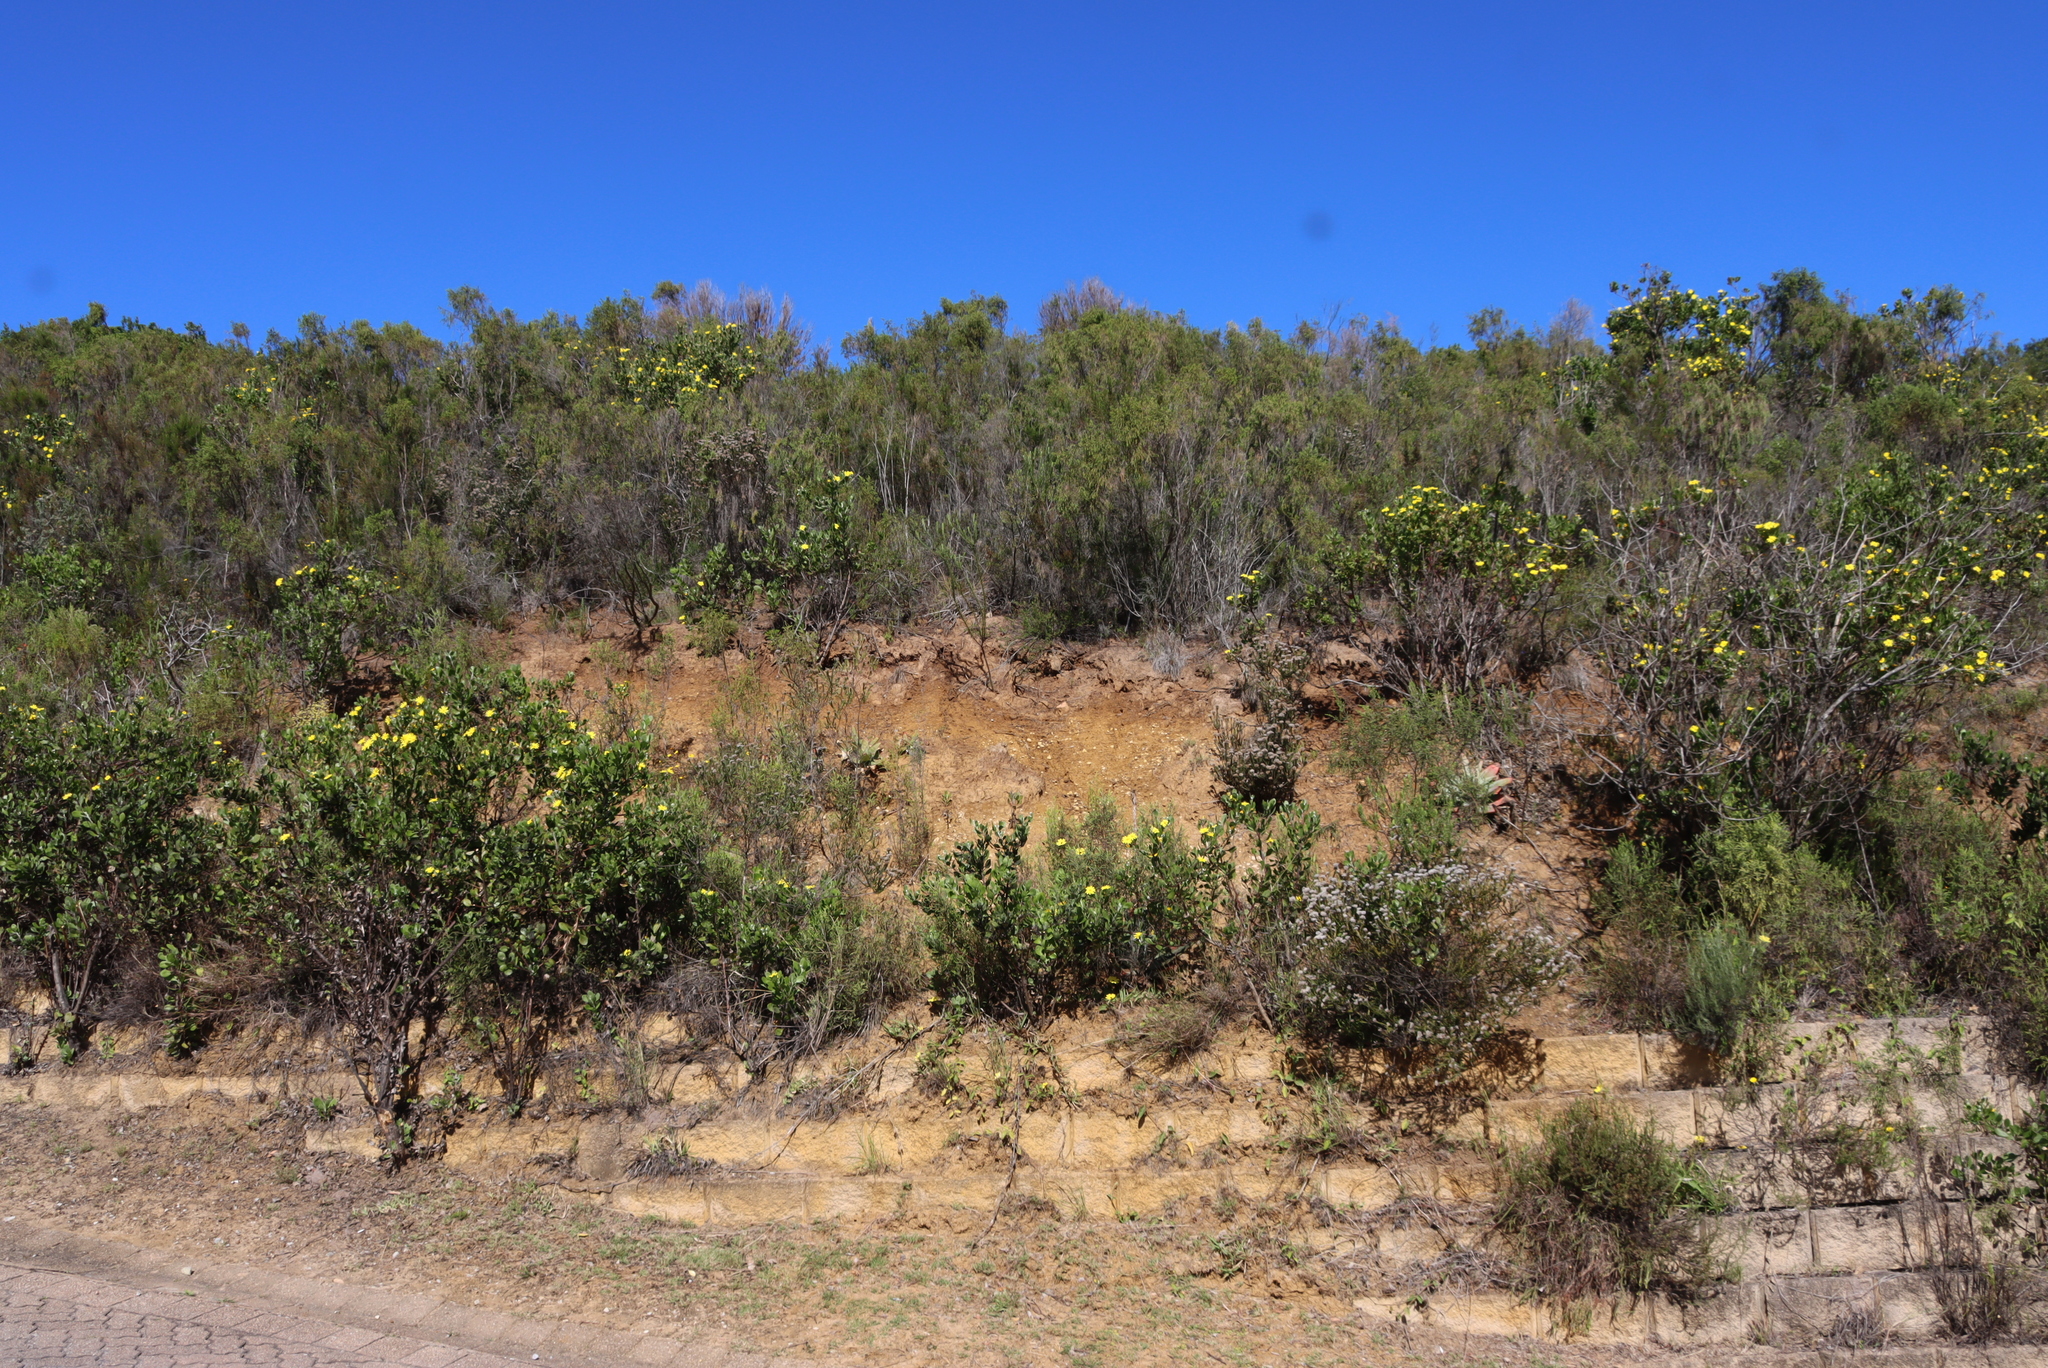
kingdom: Plantae
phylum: Tracheophyta
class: Magnoliopsida
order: Asterales
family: Asteraceae
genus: Osteospermum
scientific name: Osteospermum moniliferum
